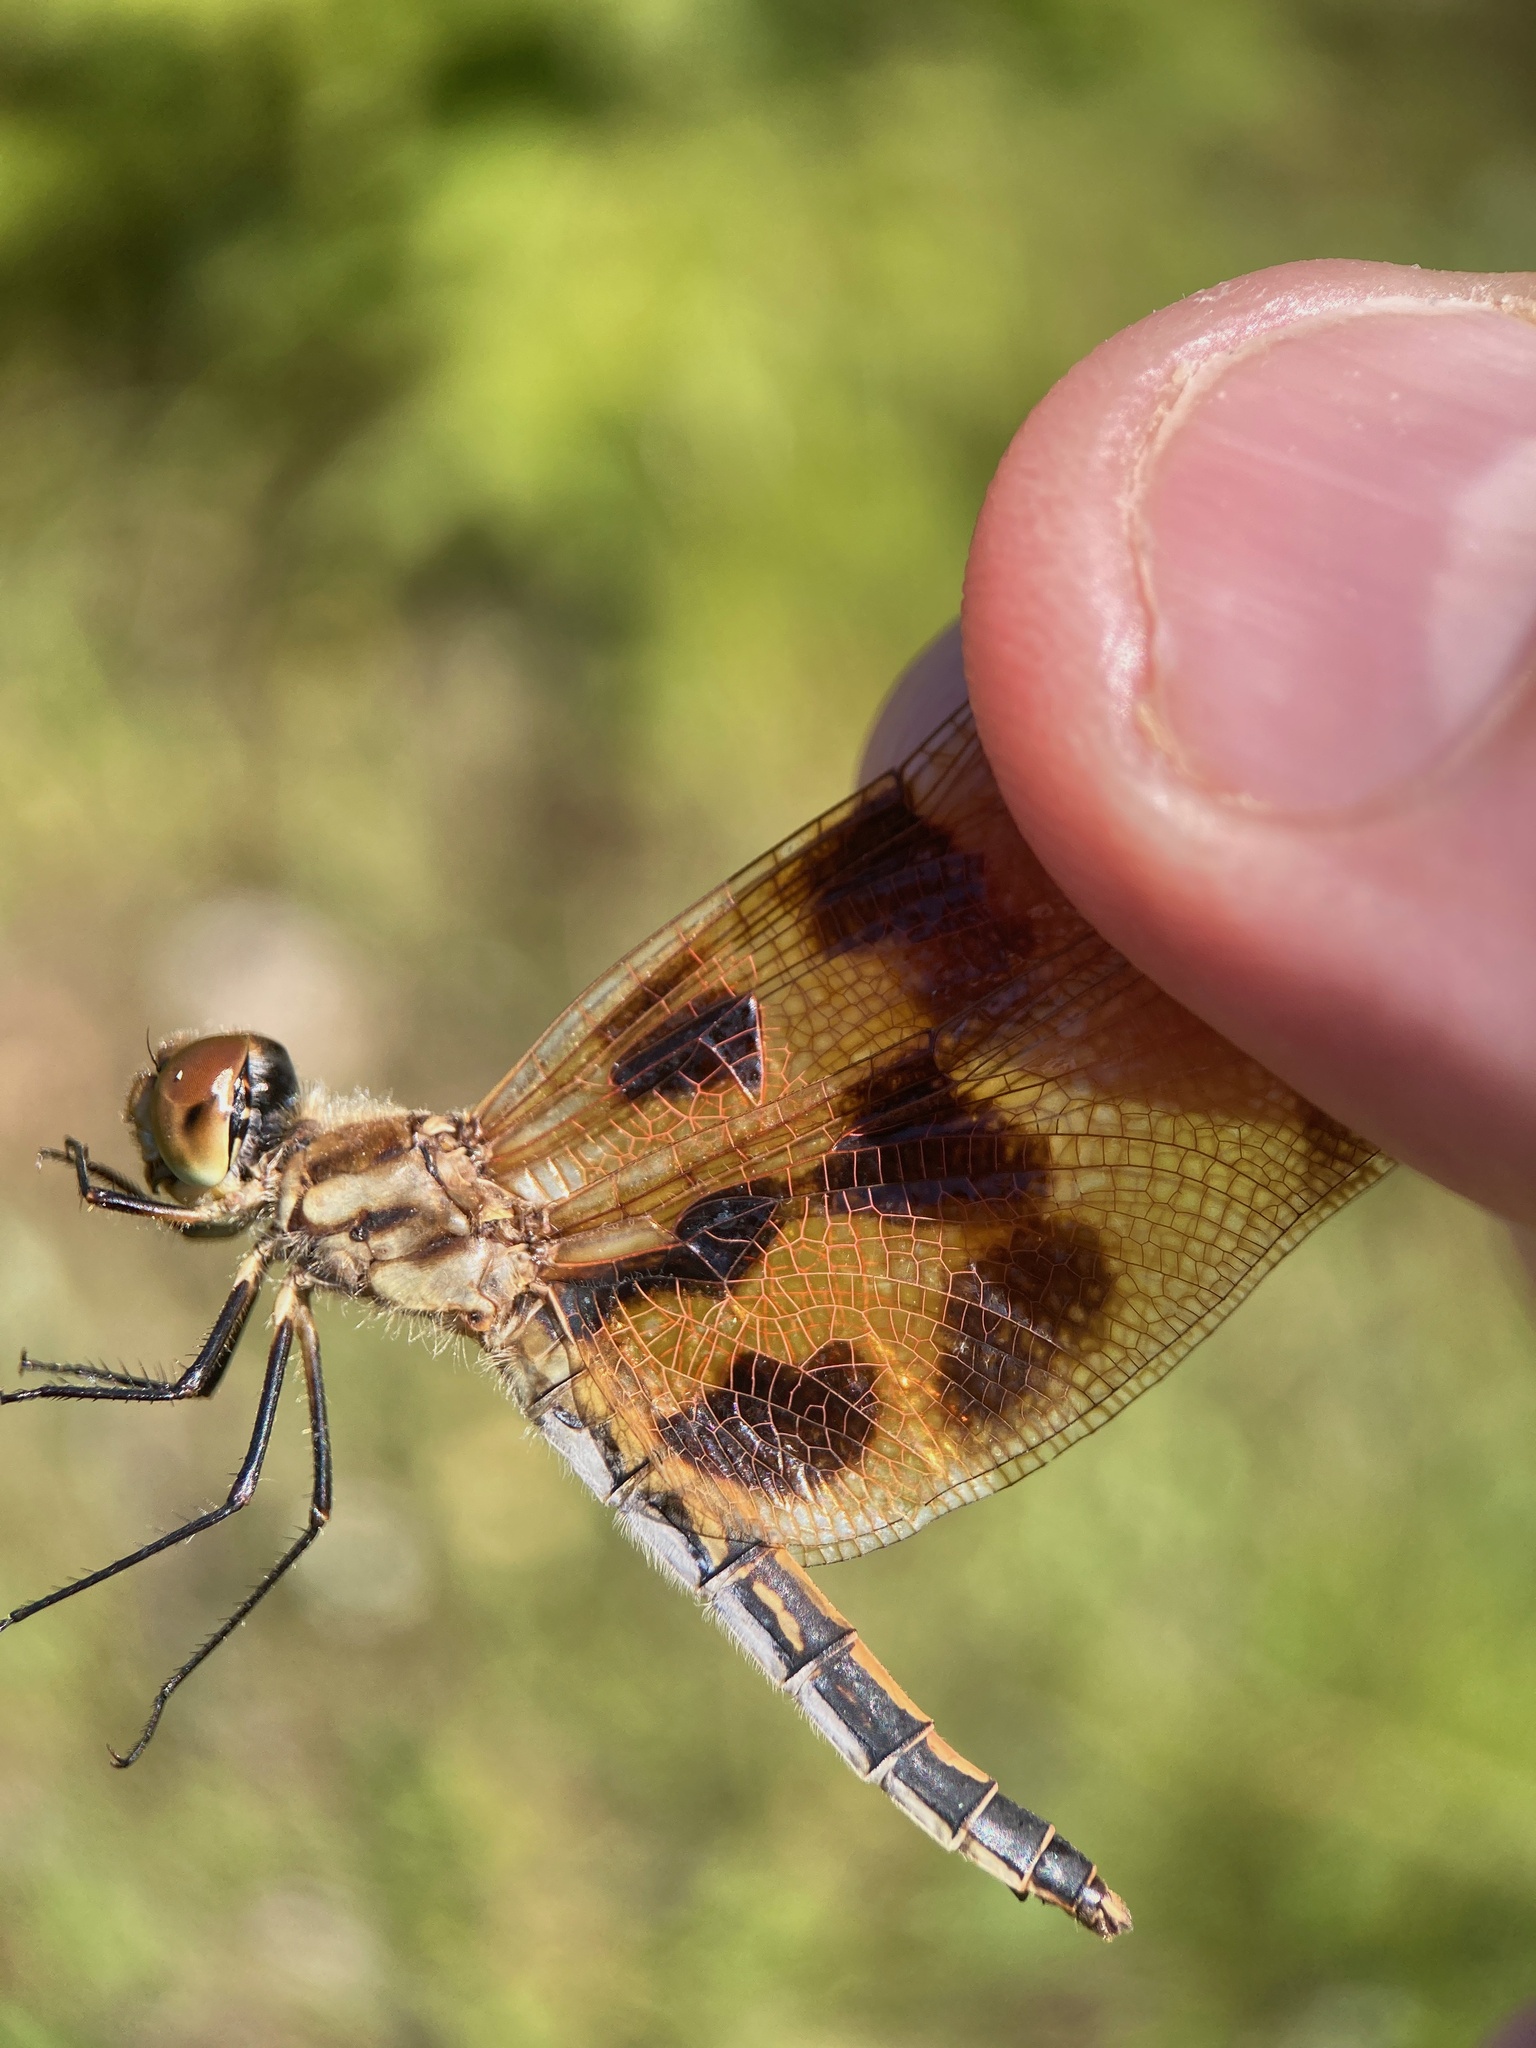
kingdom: Animalia
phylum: Arthropoda
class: Insecta
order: Odonata
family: Libellulidae
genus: Celithemis
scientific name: Celithemis eponina
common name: Halloween pennant
